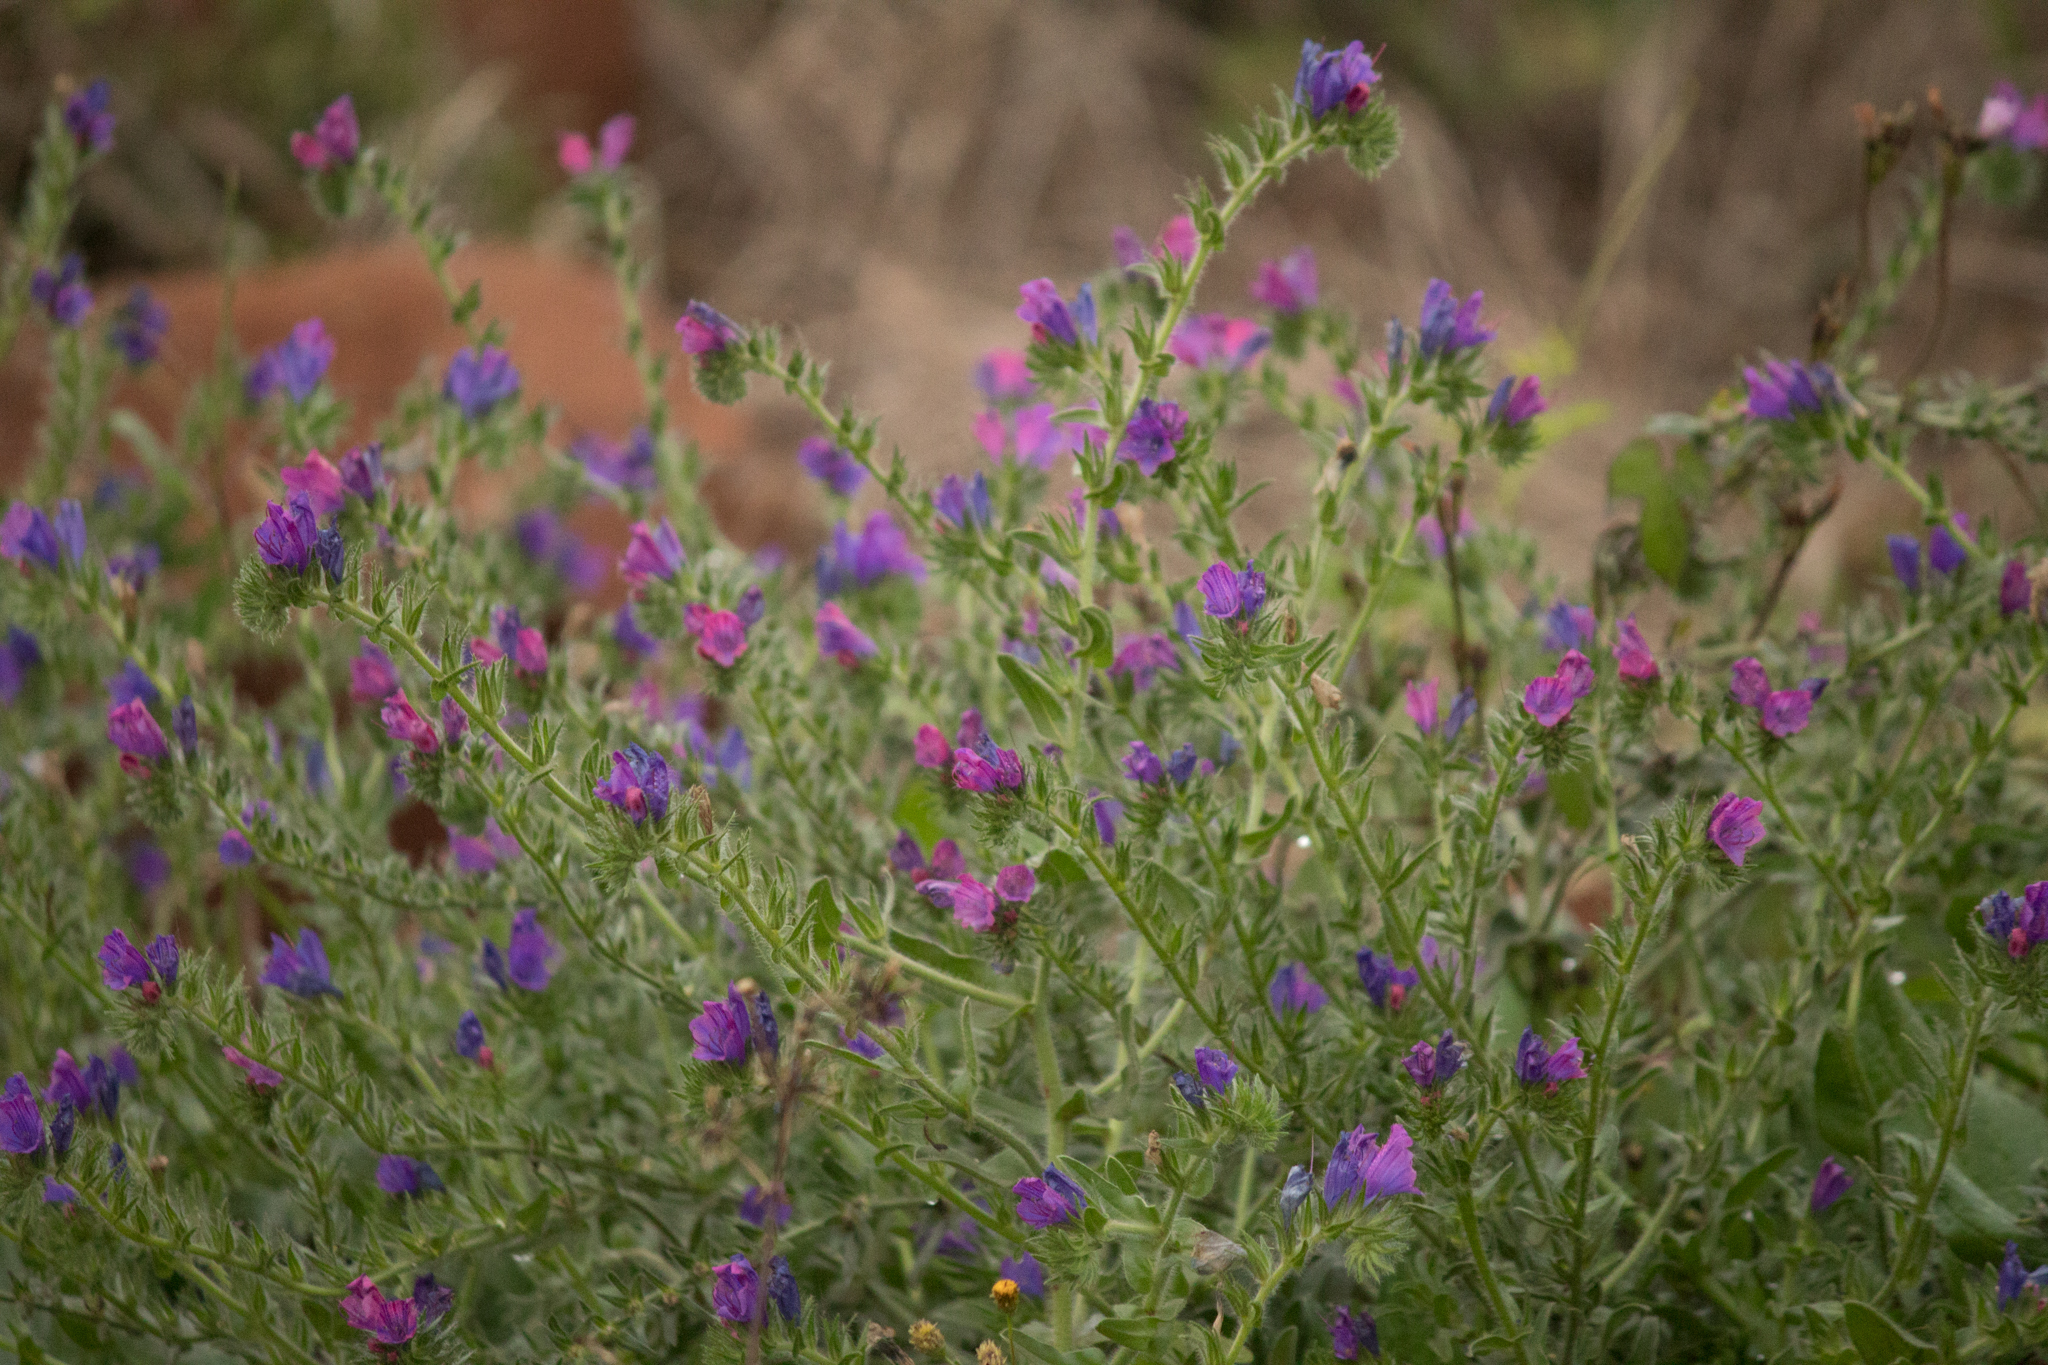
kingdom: Plantae
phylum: Tracheophyta
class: Magnoliopsida
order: Boraginales
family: Boraginaceae
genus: Echium
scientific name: Echium plantagineum
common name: Purple viper's-bugloss
